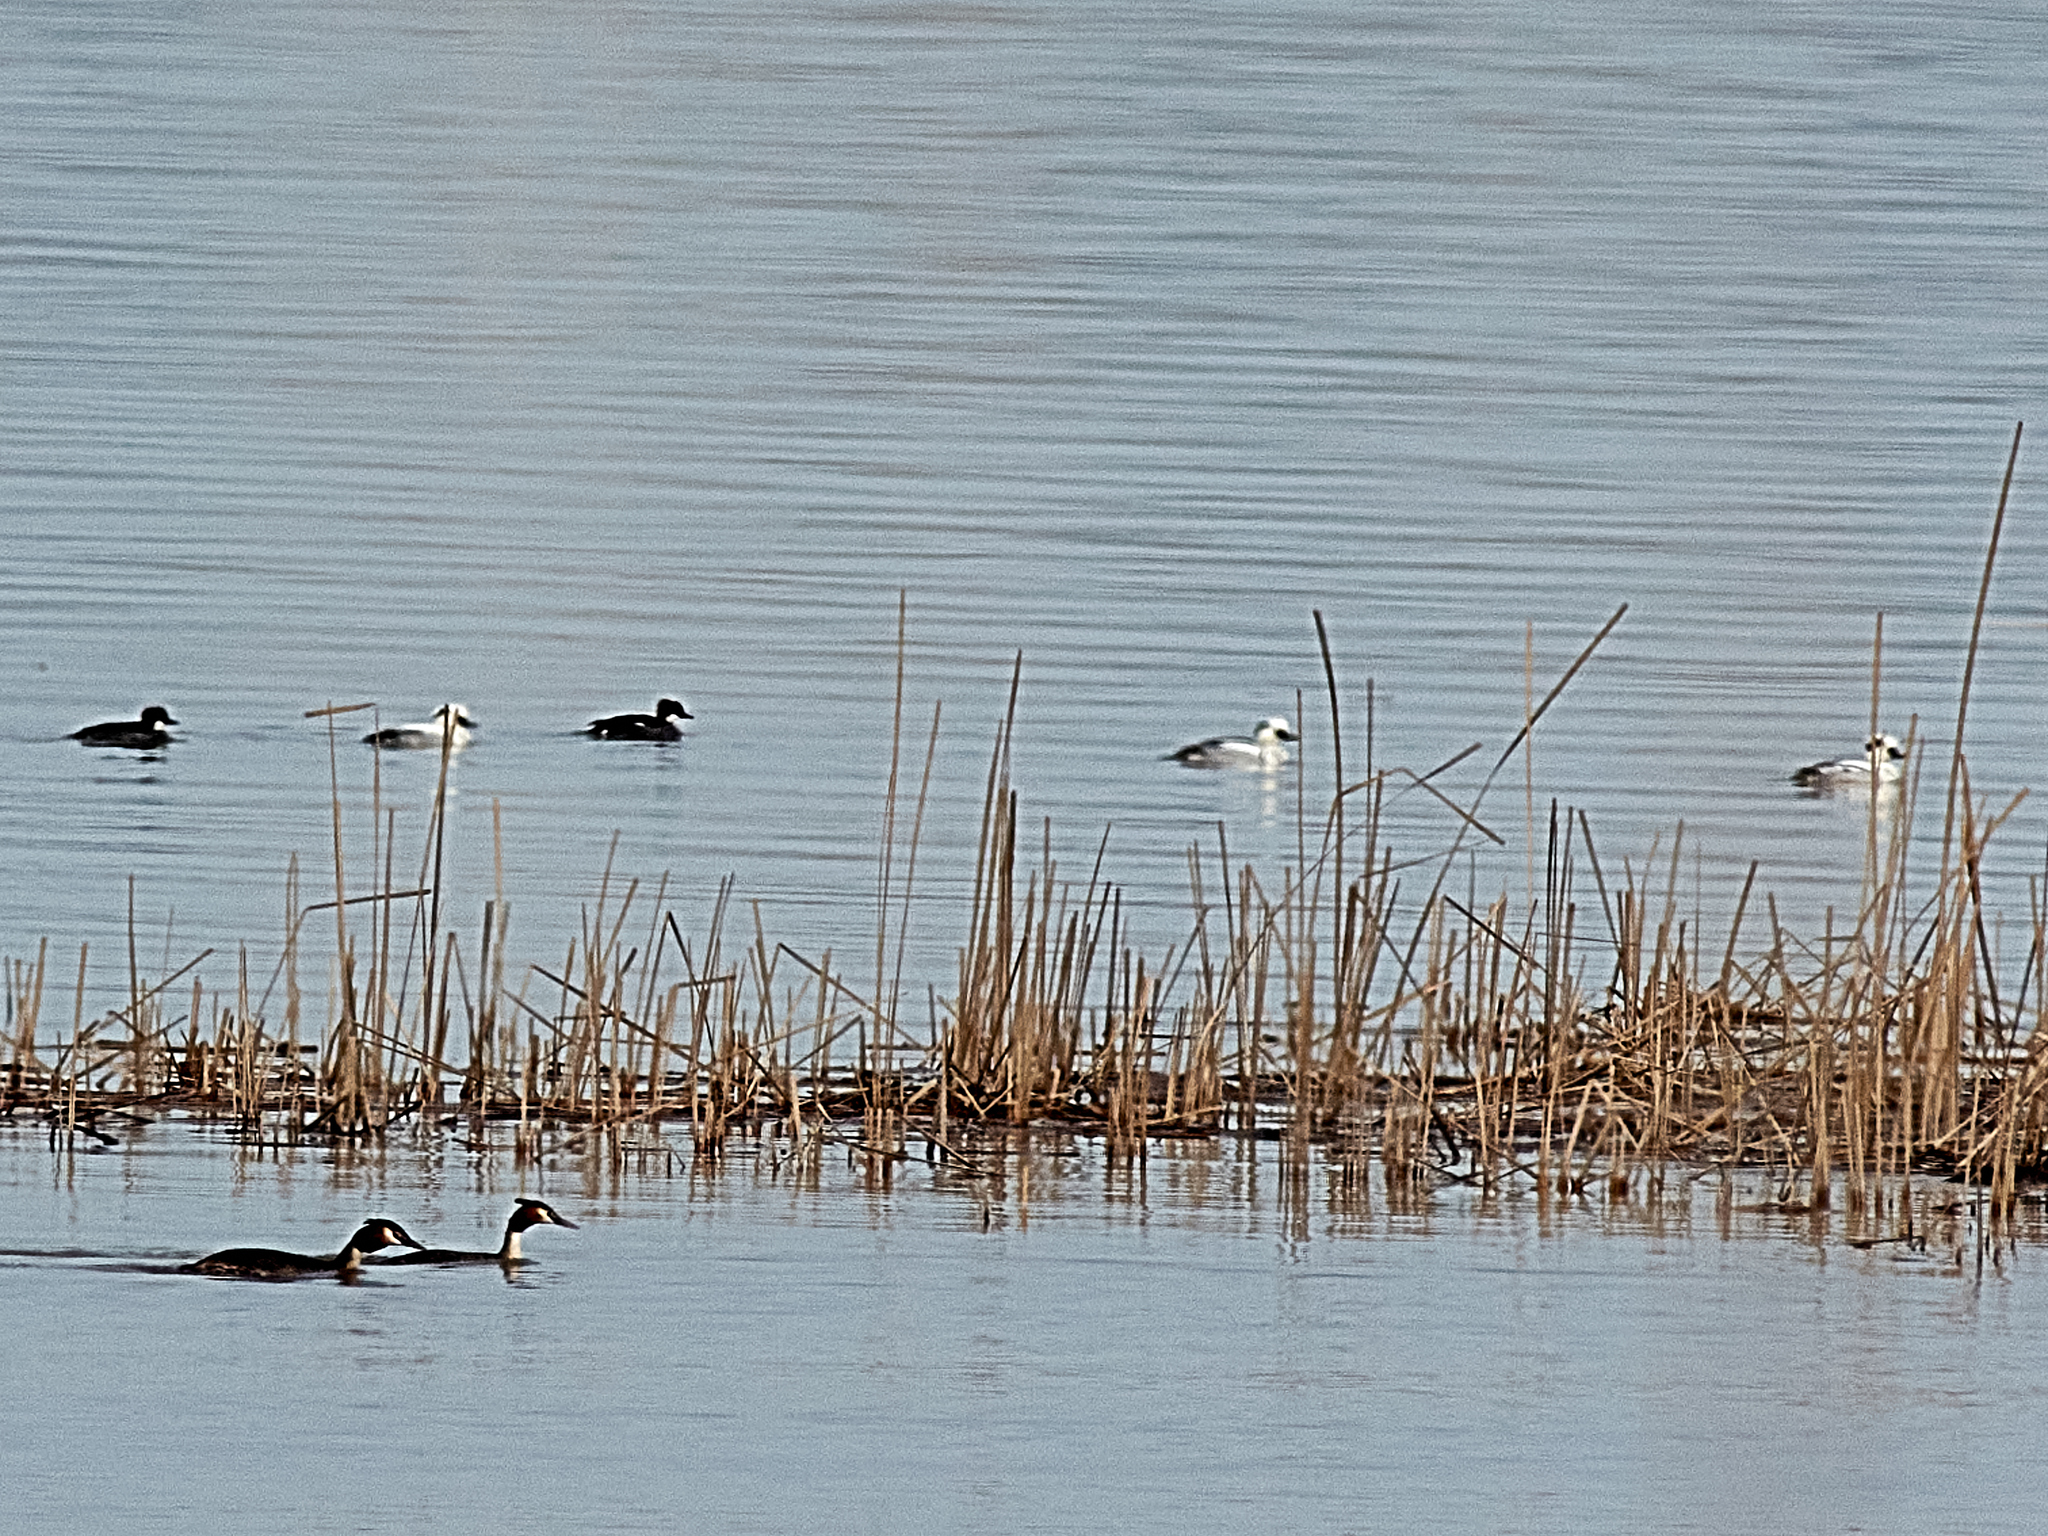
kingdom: Animalia
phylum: Chordata
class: Aves
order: Anseriformes
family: Anatidae
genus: Mergellus
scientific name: Mergellus albellus
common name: Smew
